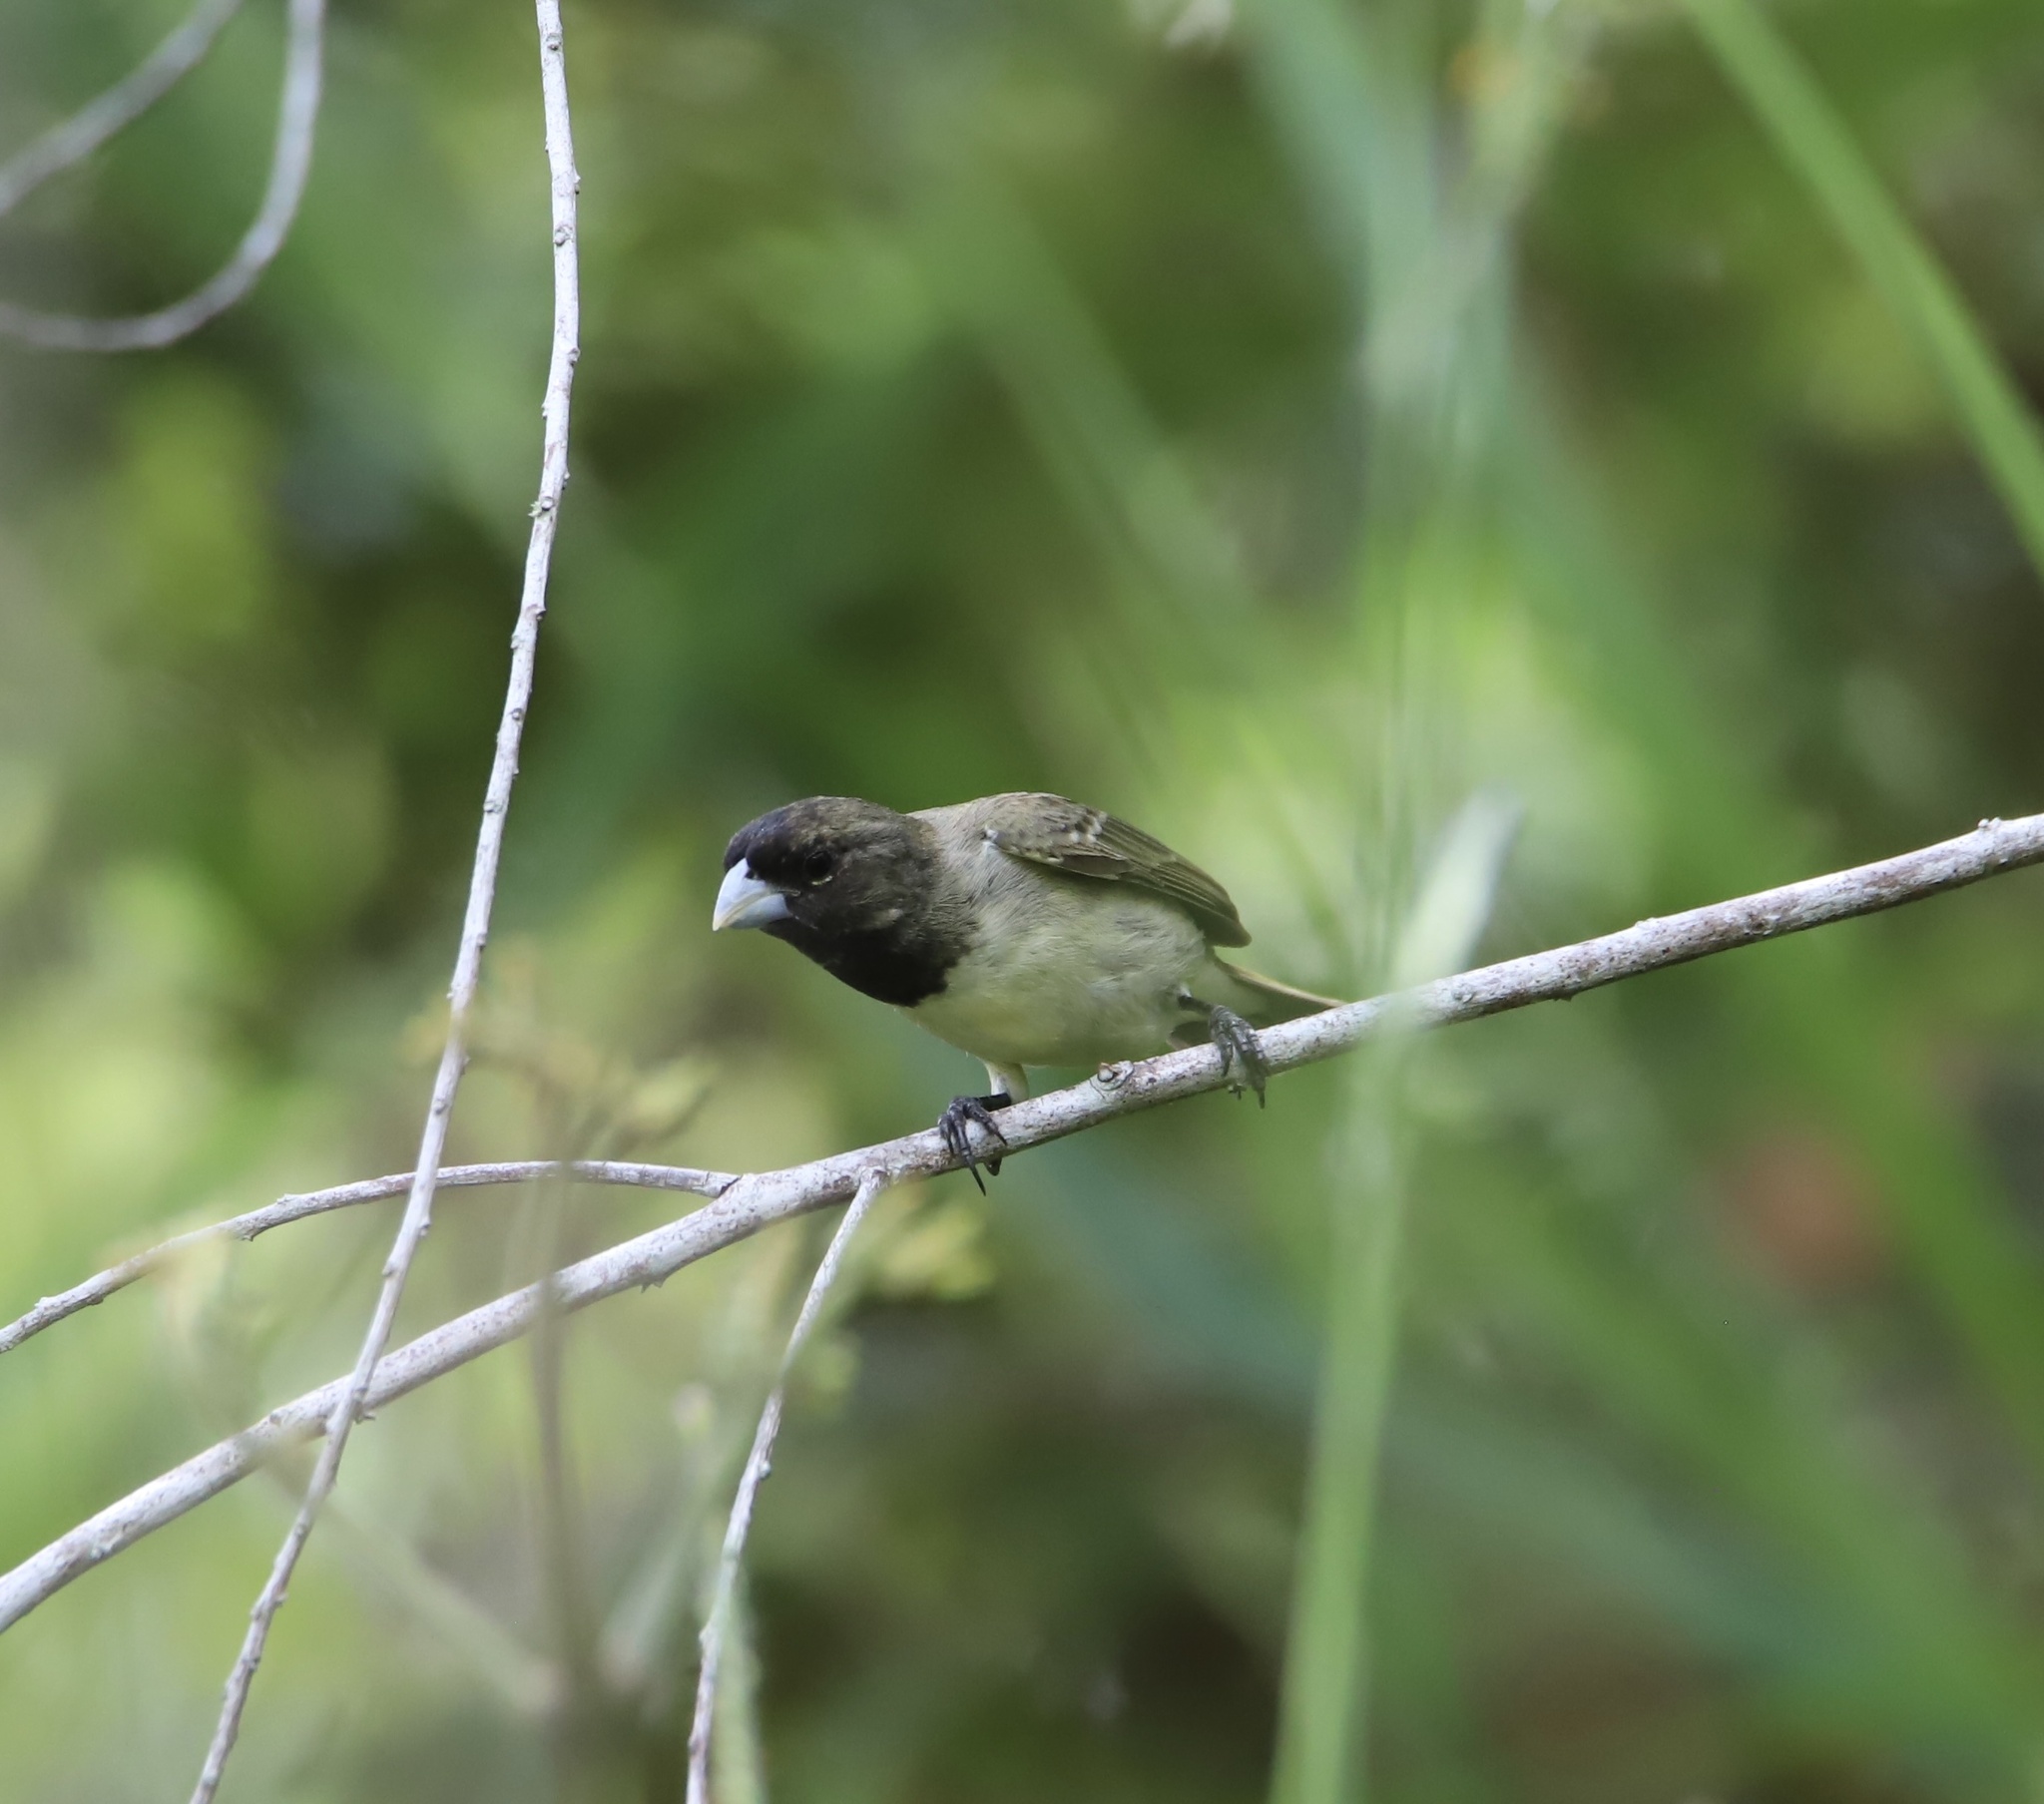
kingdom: Animalia
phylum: Chordata
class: Aves
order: Passeriformes
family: Thraupidae
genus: Sporophila
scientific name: Sporophila nigricollis
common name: Yellow-bellied seedeater
